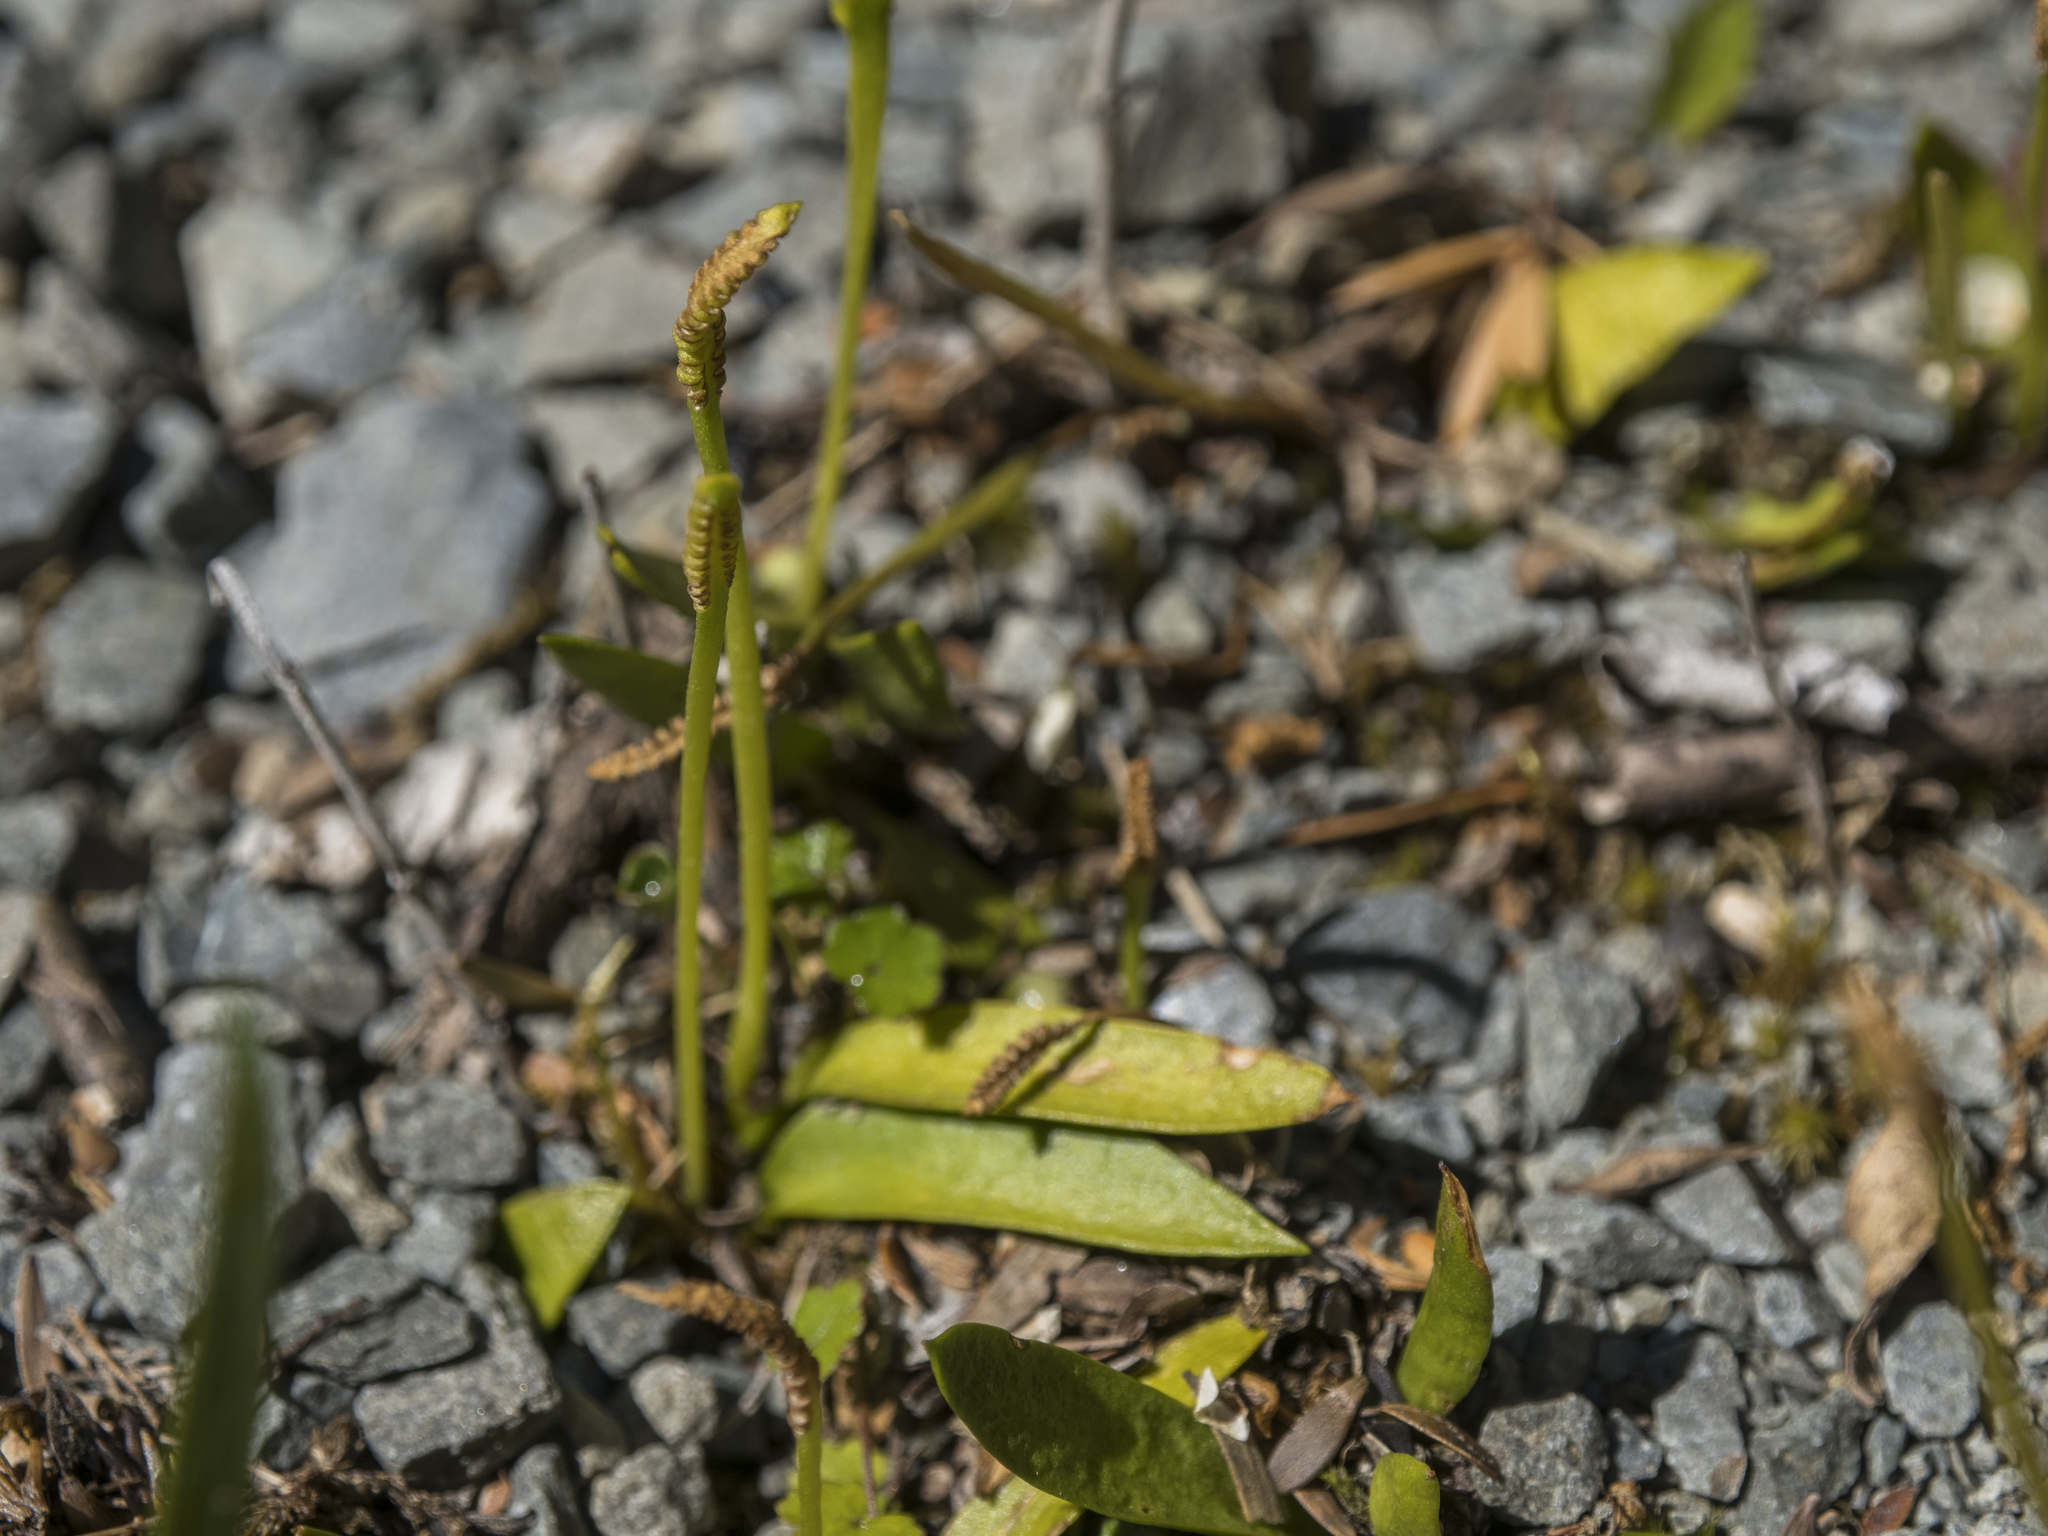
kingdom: Plantae
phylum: Tracheophyta
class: Polypodiopsida
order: Ophioglossales
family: Ophioglossaceae
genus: Ophioglossum
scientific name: Ophioglossum coriaceum
